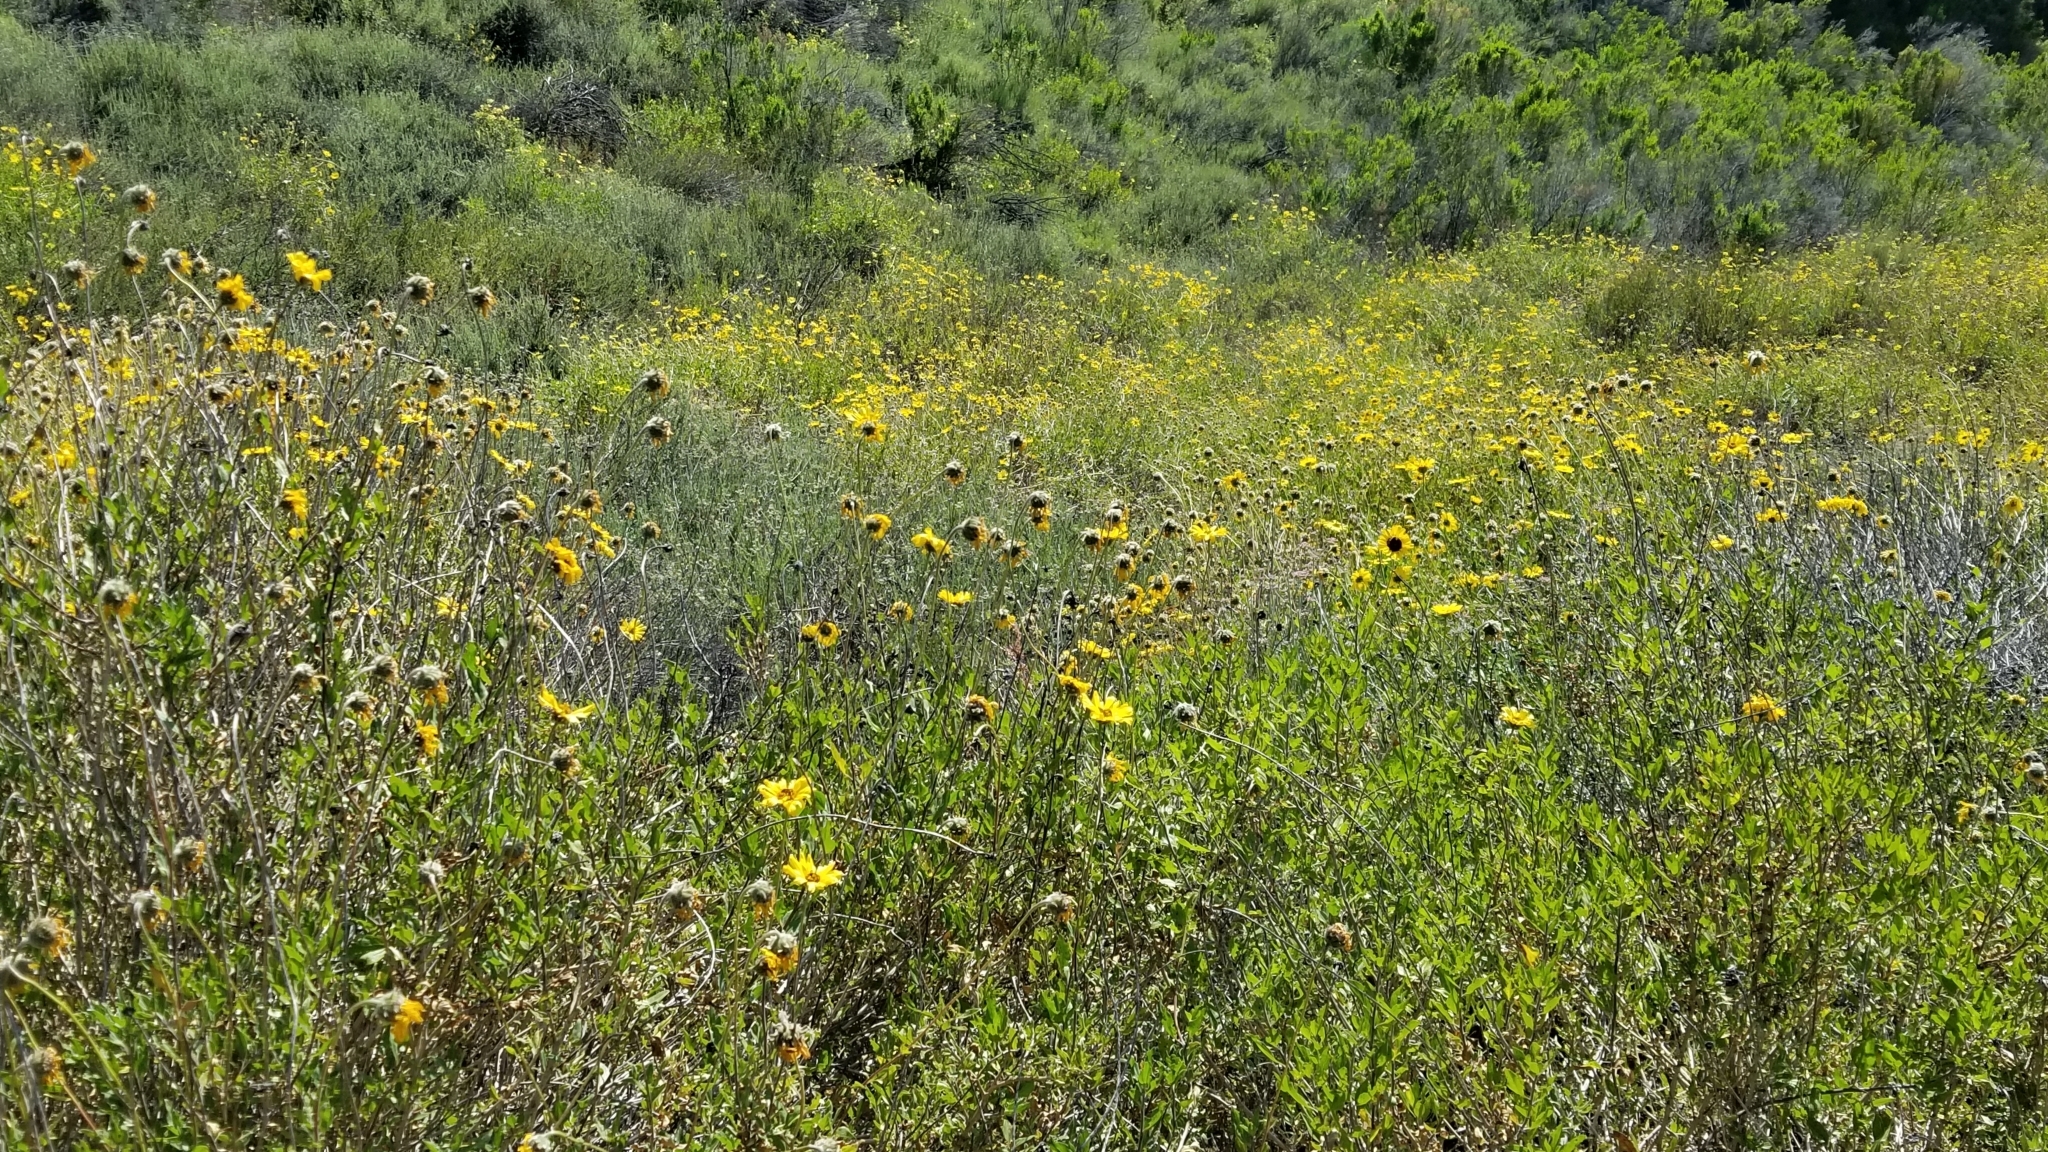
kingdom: Plantae
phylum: Tracheophyta
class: Magnoliopsida
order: Asterales
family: Asteraceae
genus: Encelia
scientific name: Encelia californica
